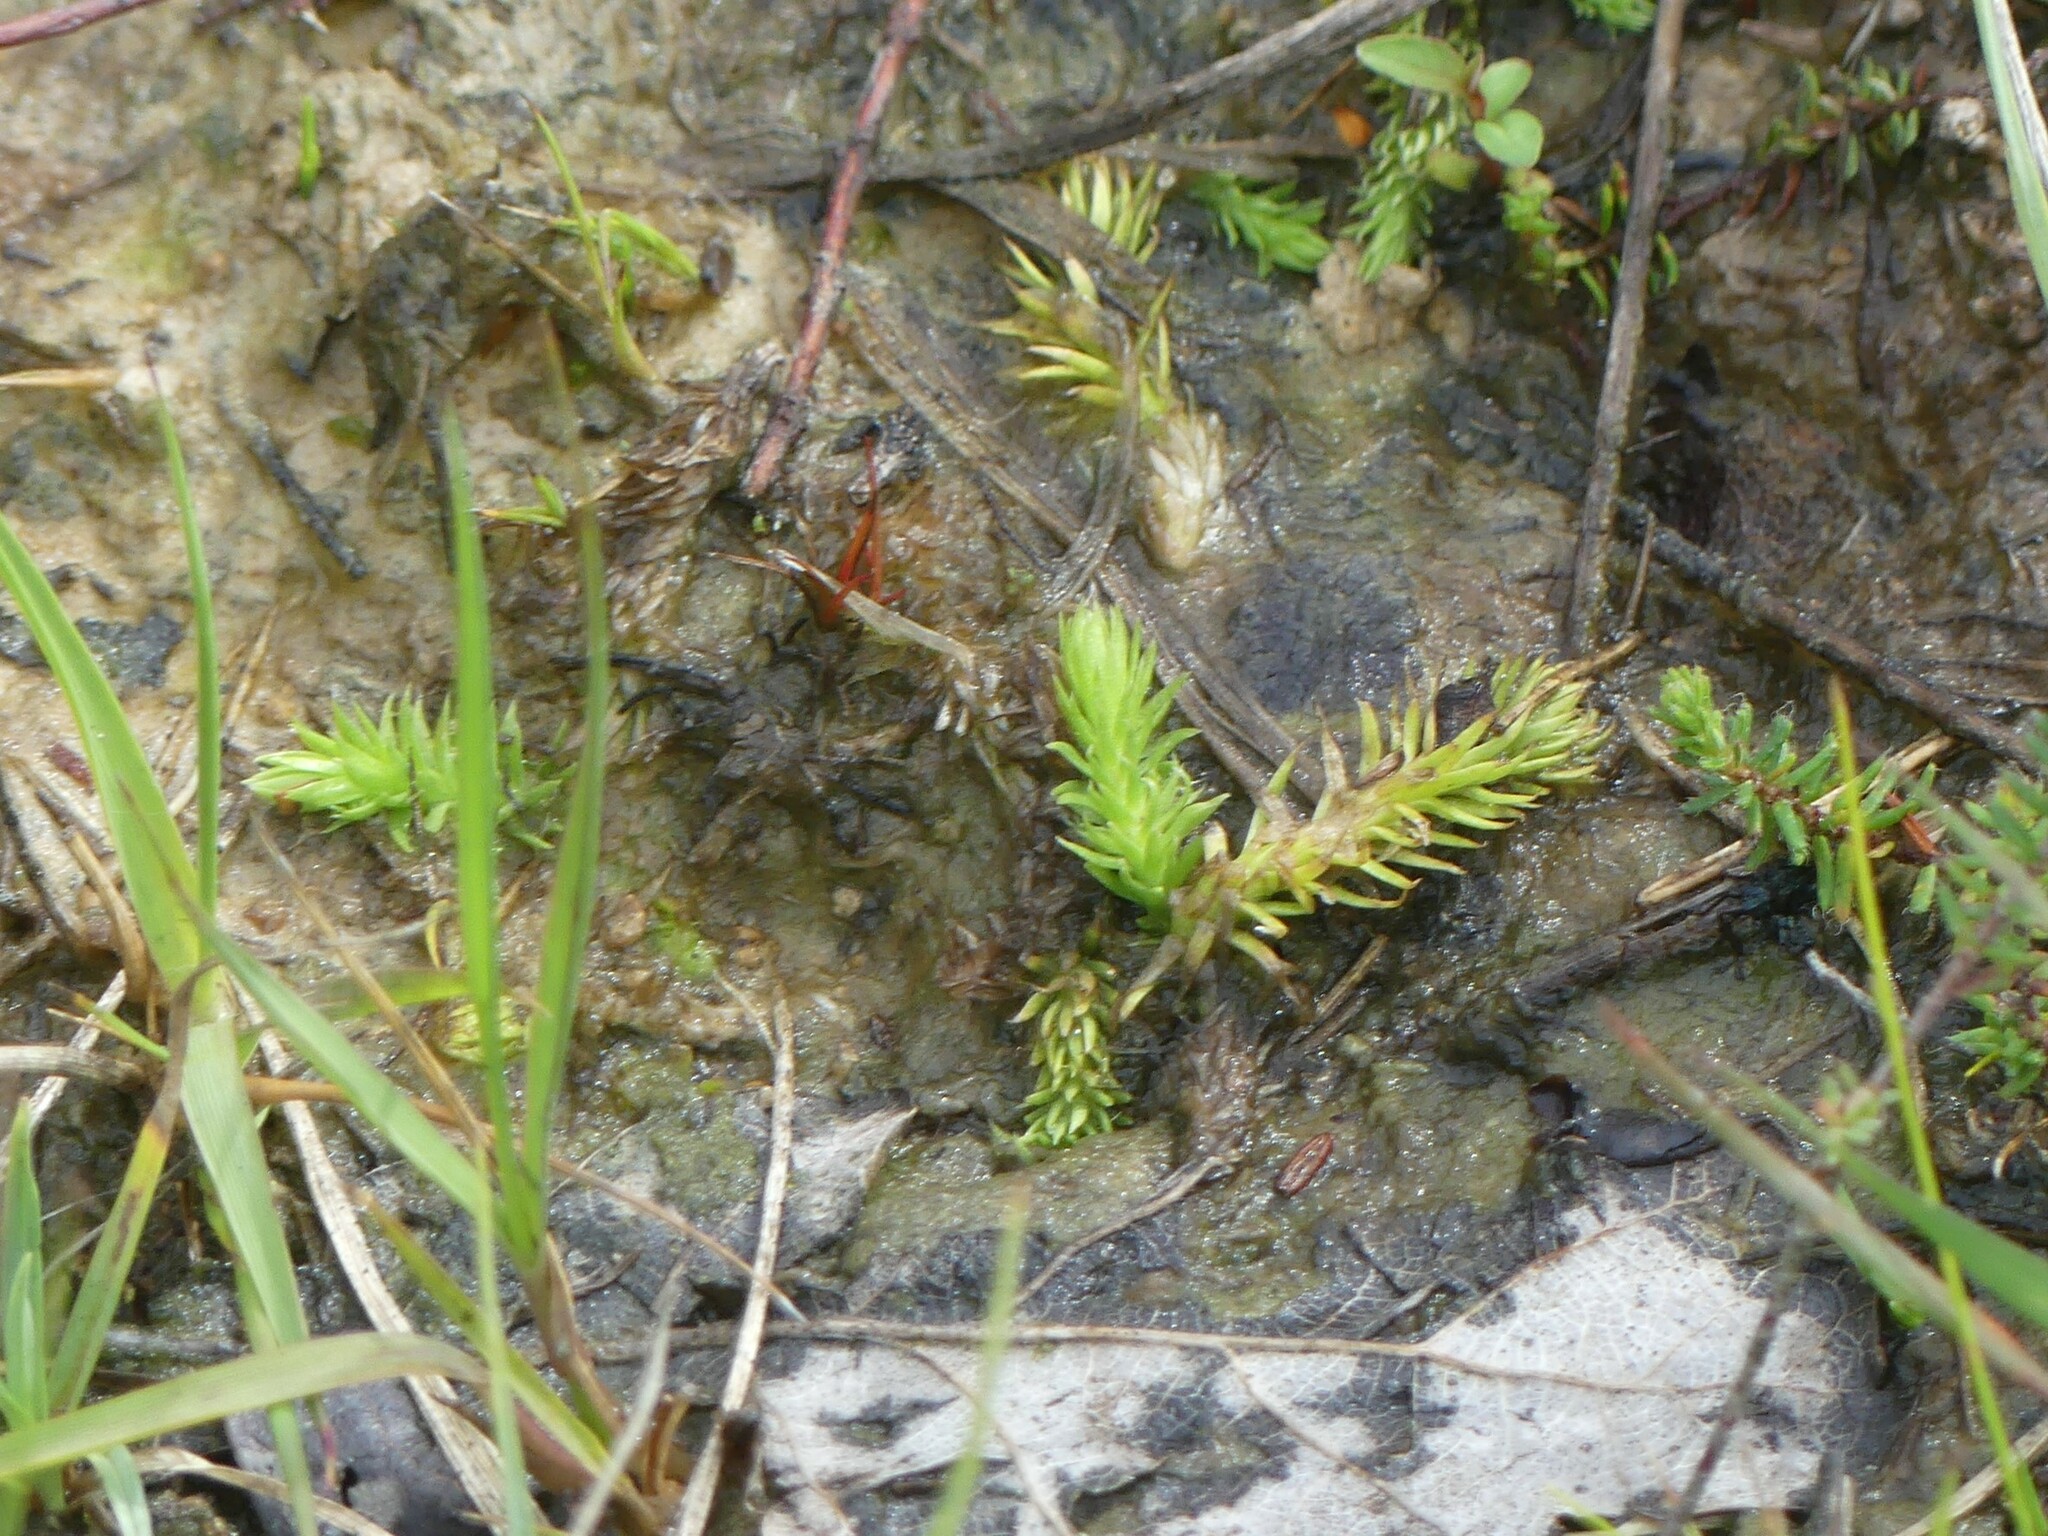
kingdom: Plantae
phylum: Tracheophyta
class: Lycopodiopsida
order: Lycopodiales
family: Lycopodiaceae
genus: Lycopodiella
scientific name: Lycopodiella inundata
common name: Marsh clubmoss
